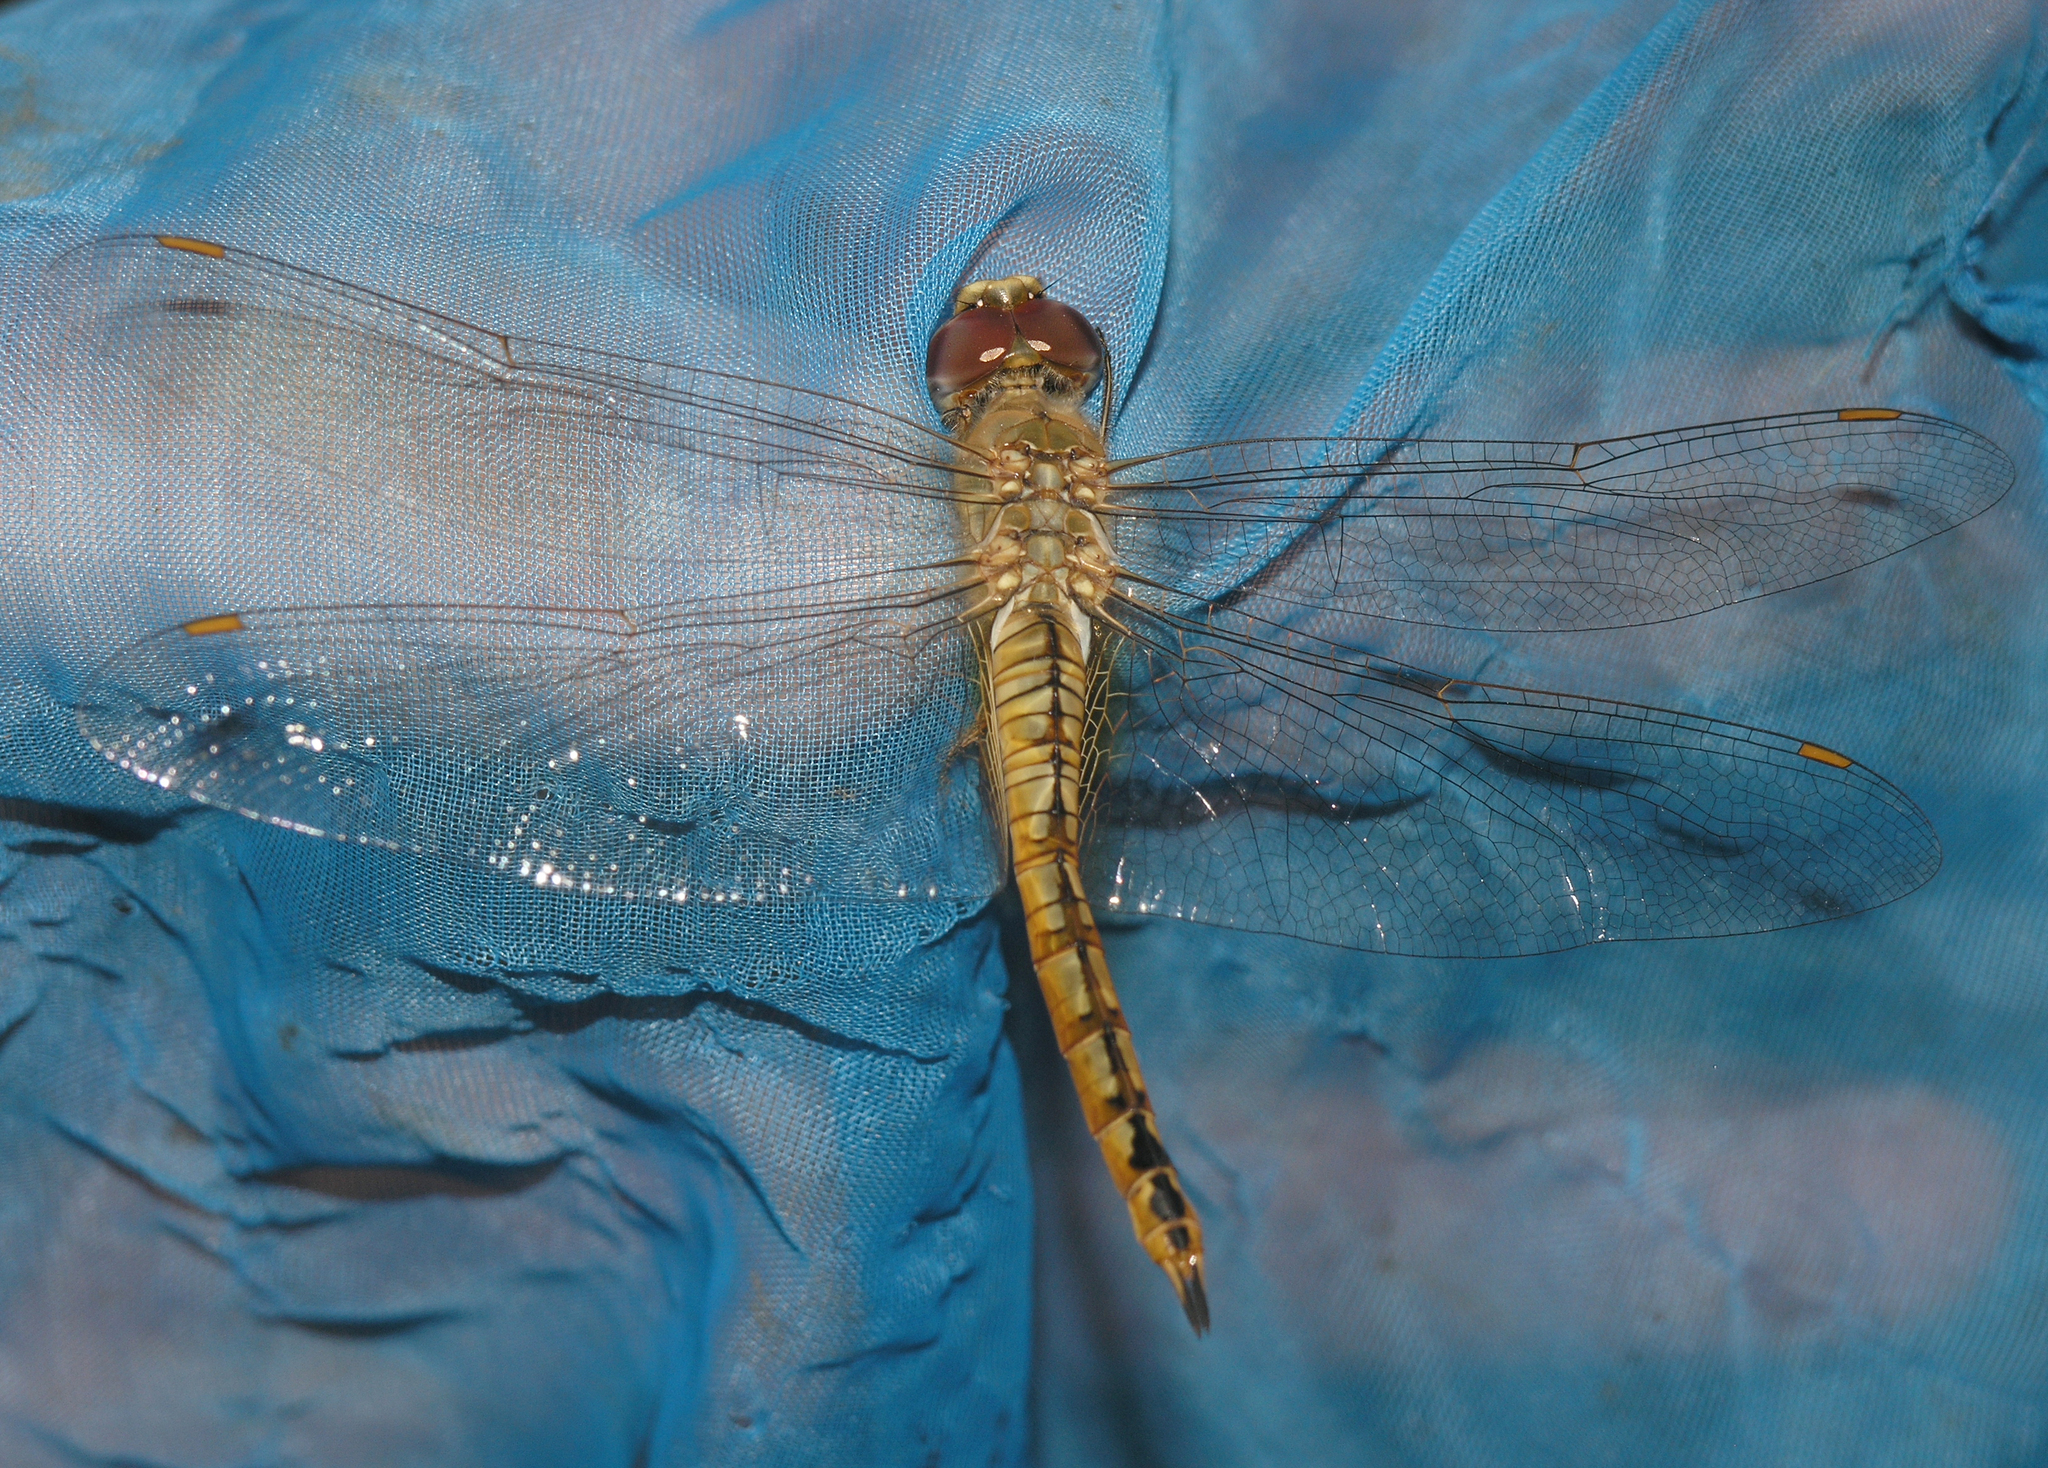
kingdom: Animalia
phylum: Arthropoda
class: Insecta
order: Odonata
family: Libellulidae
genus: Pantala
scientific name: Pantala flavescens
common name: Wandering glider
